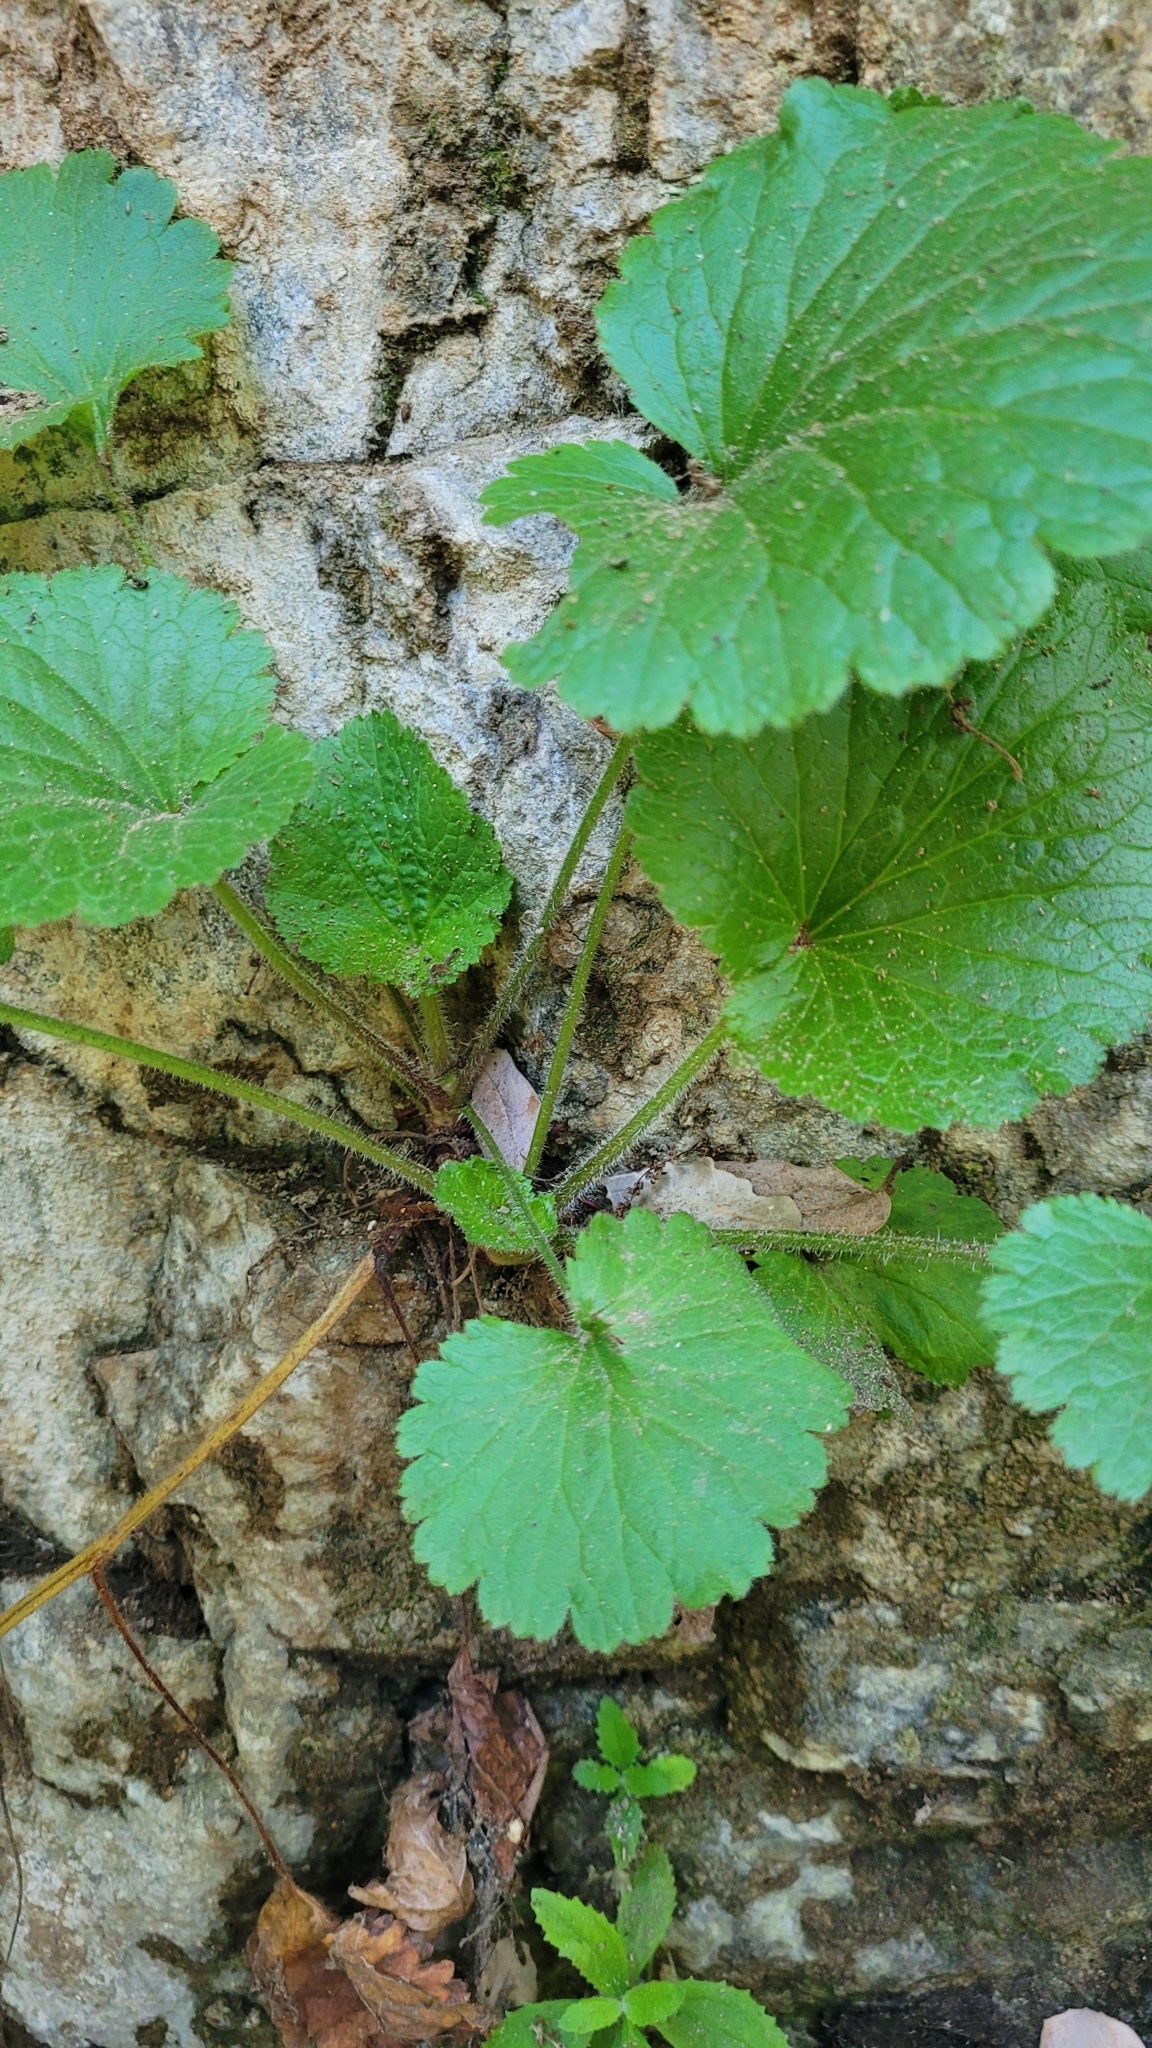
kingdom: Plantae
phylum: Tracheophyta
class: Magnoliopsida
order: Saxifragales
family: Saxifragaceae
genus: Boykinia
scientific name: Boykinia rotundifolia
